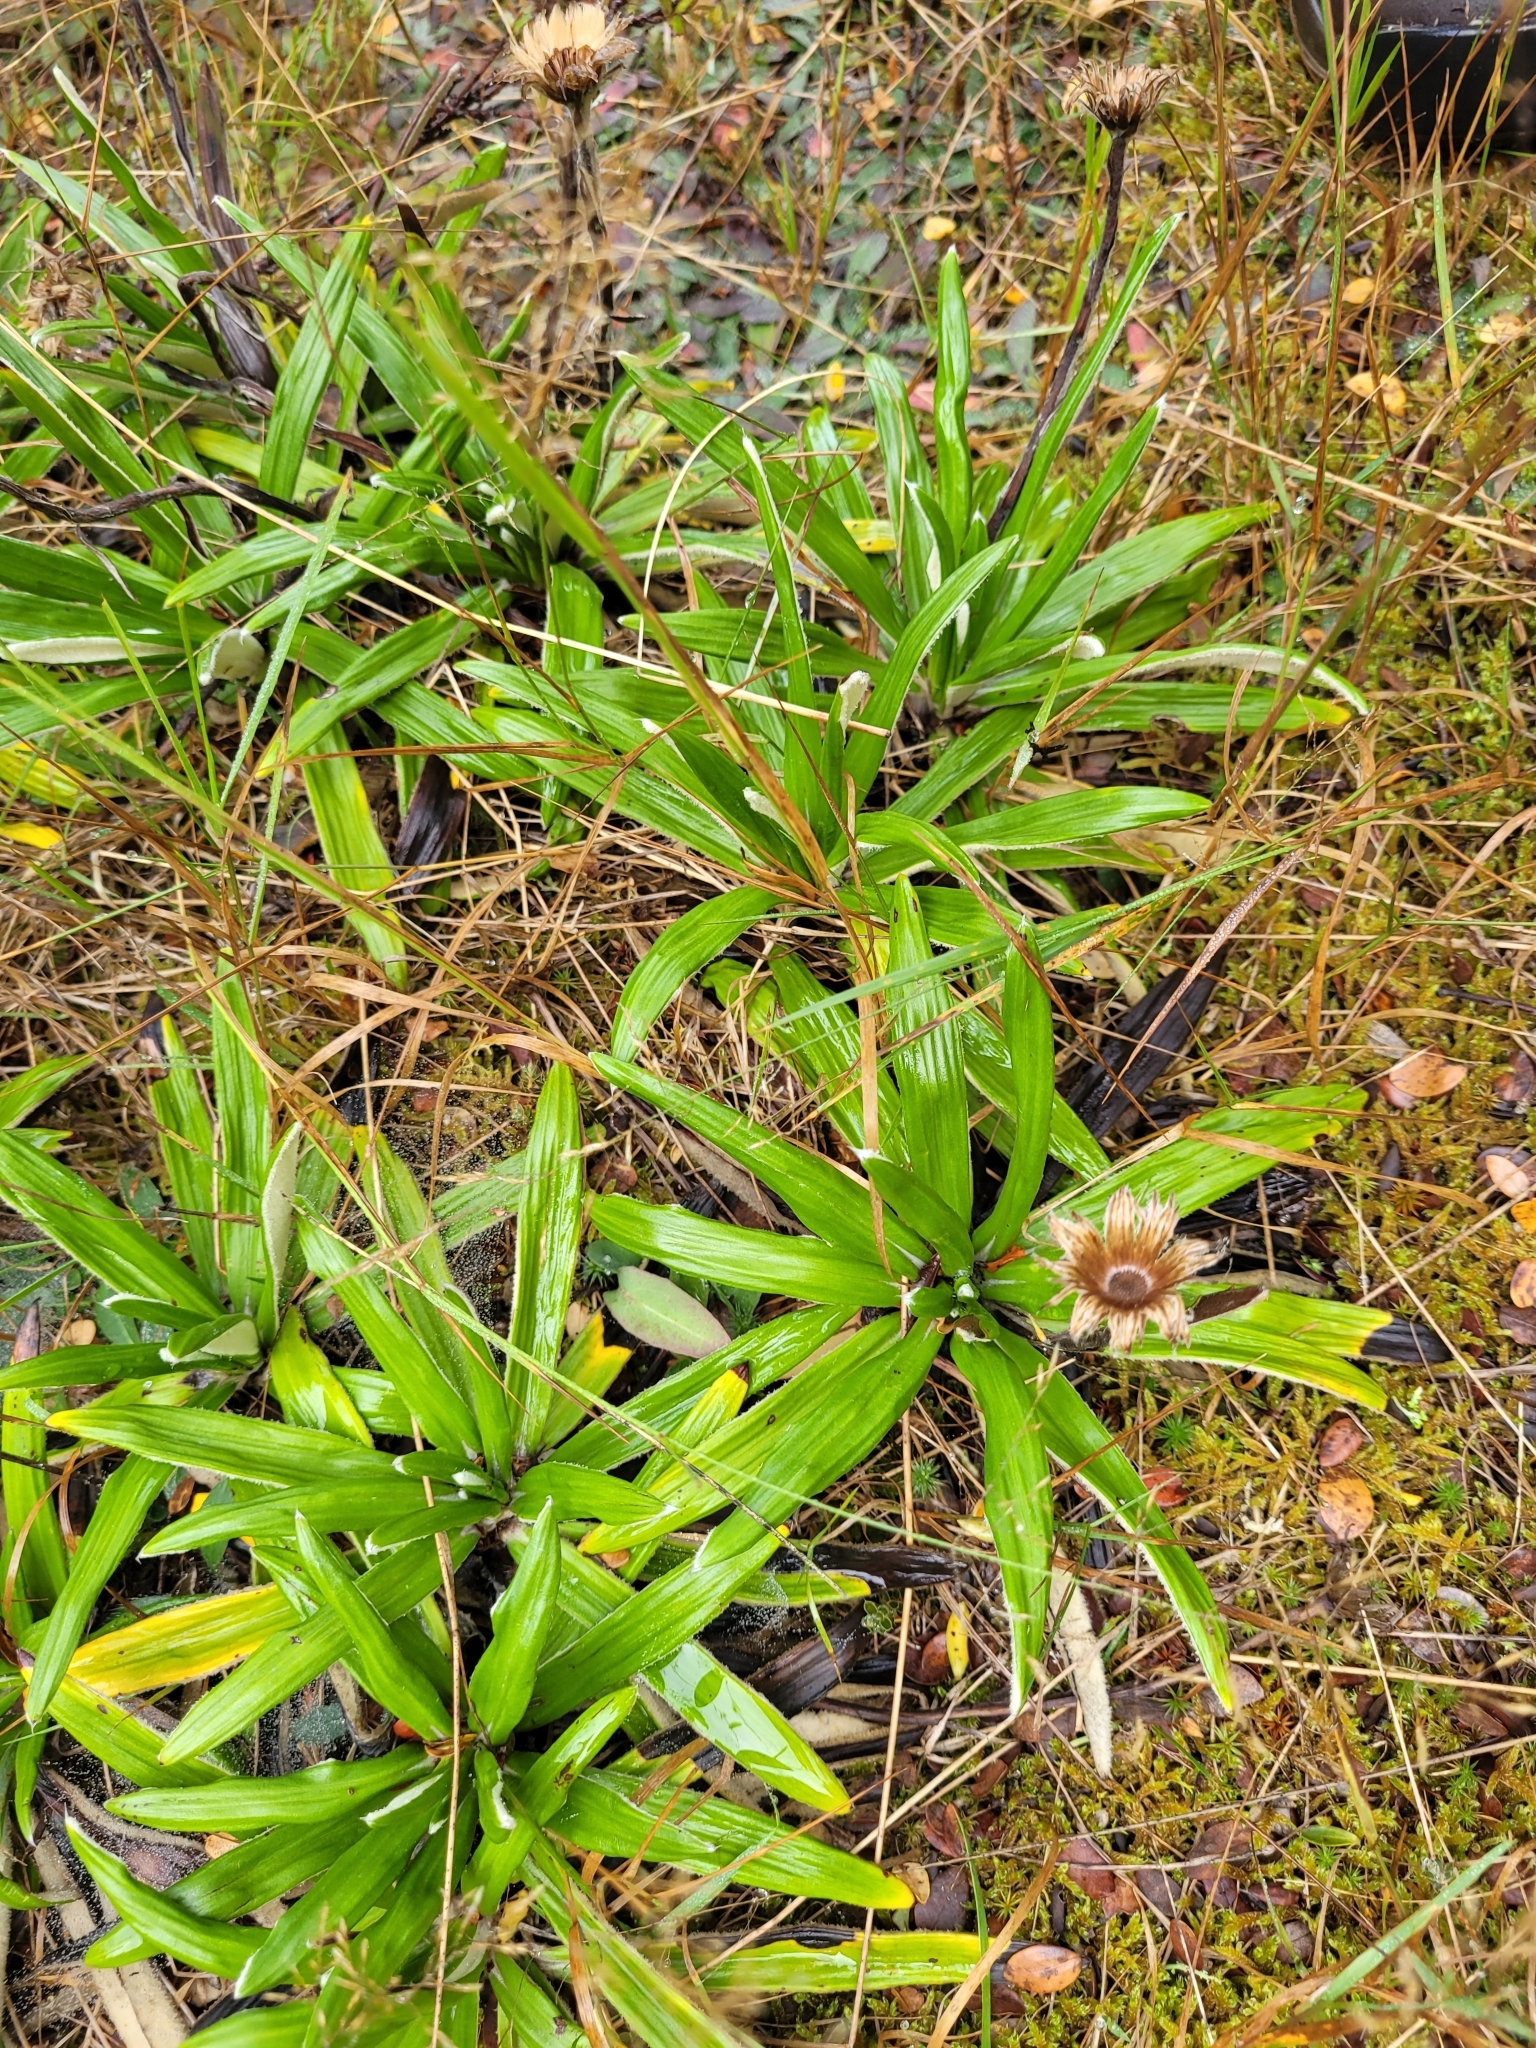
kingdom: Plantae
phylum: Tracheophyta
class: Magnoliopsida
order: Asterales
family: Asteraceae
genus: Celmisia
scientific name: Celmisia spectabilis
